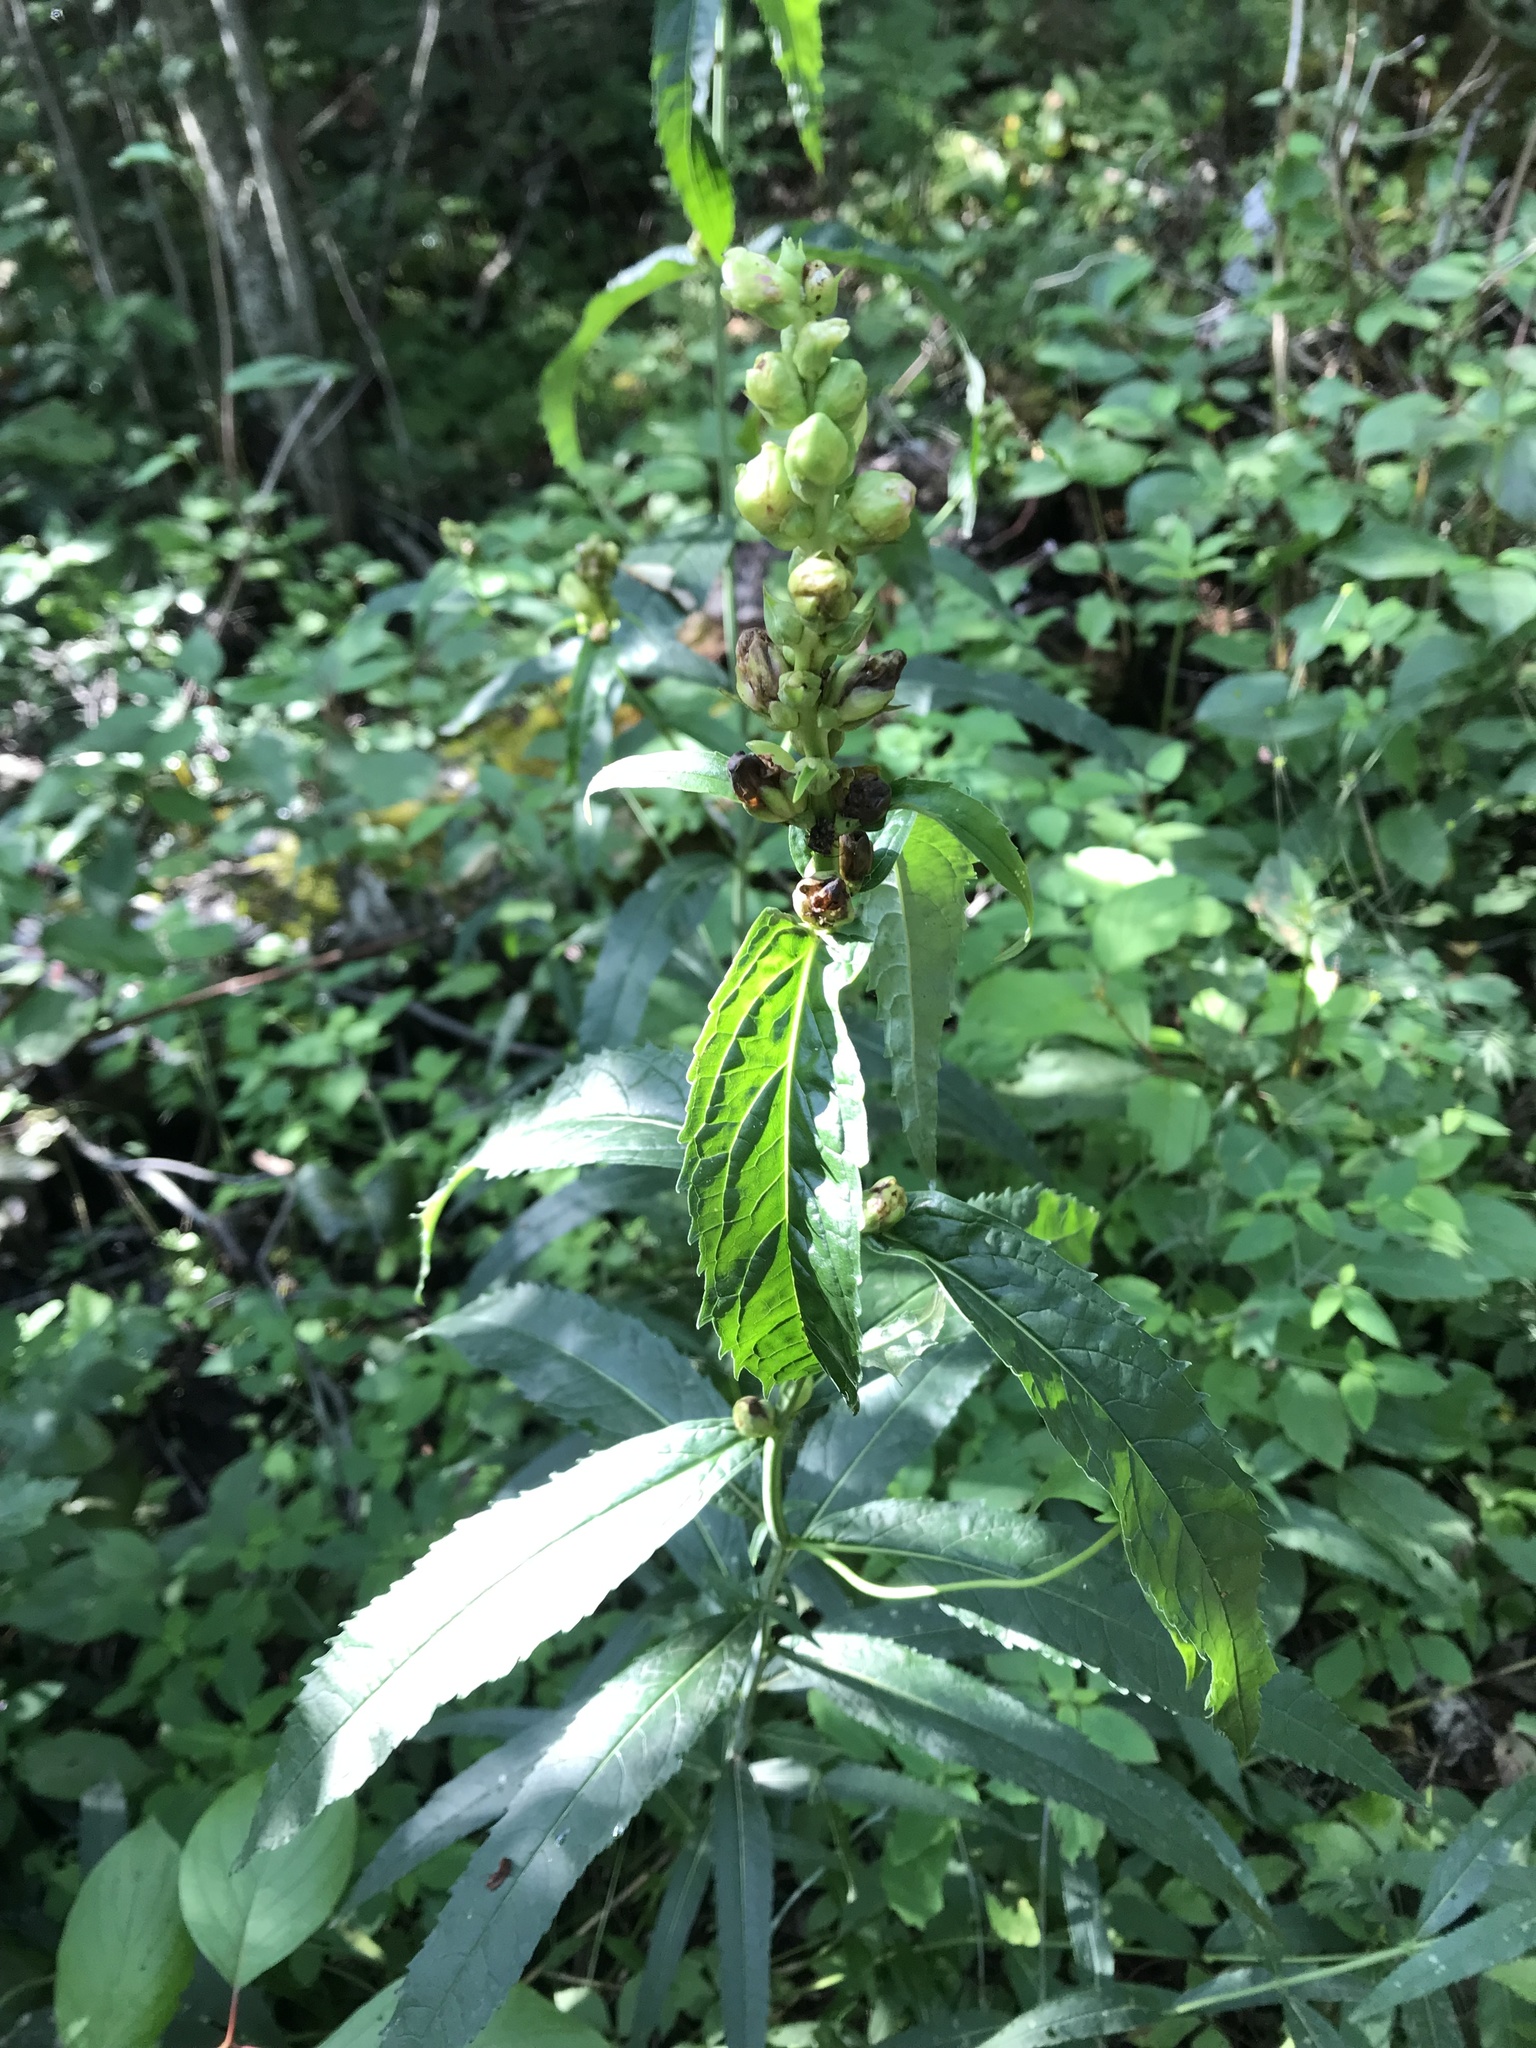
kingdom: Plantae
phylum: Tracheophyta
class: Magnoliopsida
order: Lamiales
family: Plantaginaceae
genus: Chelone
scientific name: Chelone glabra
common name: Snakehead
